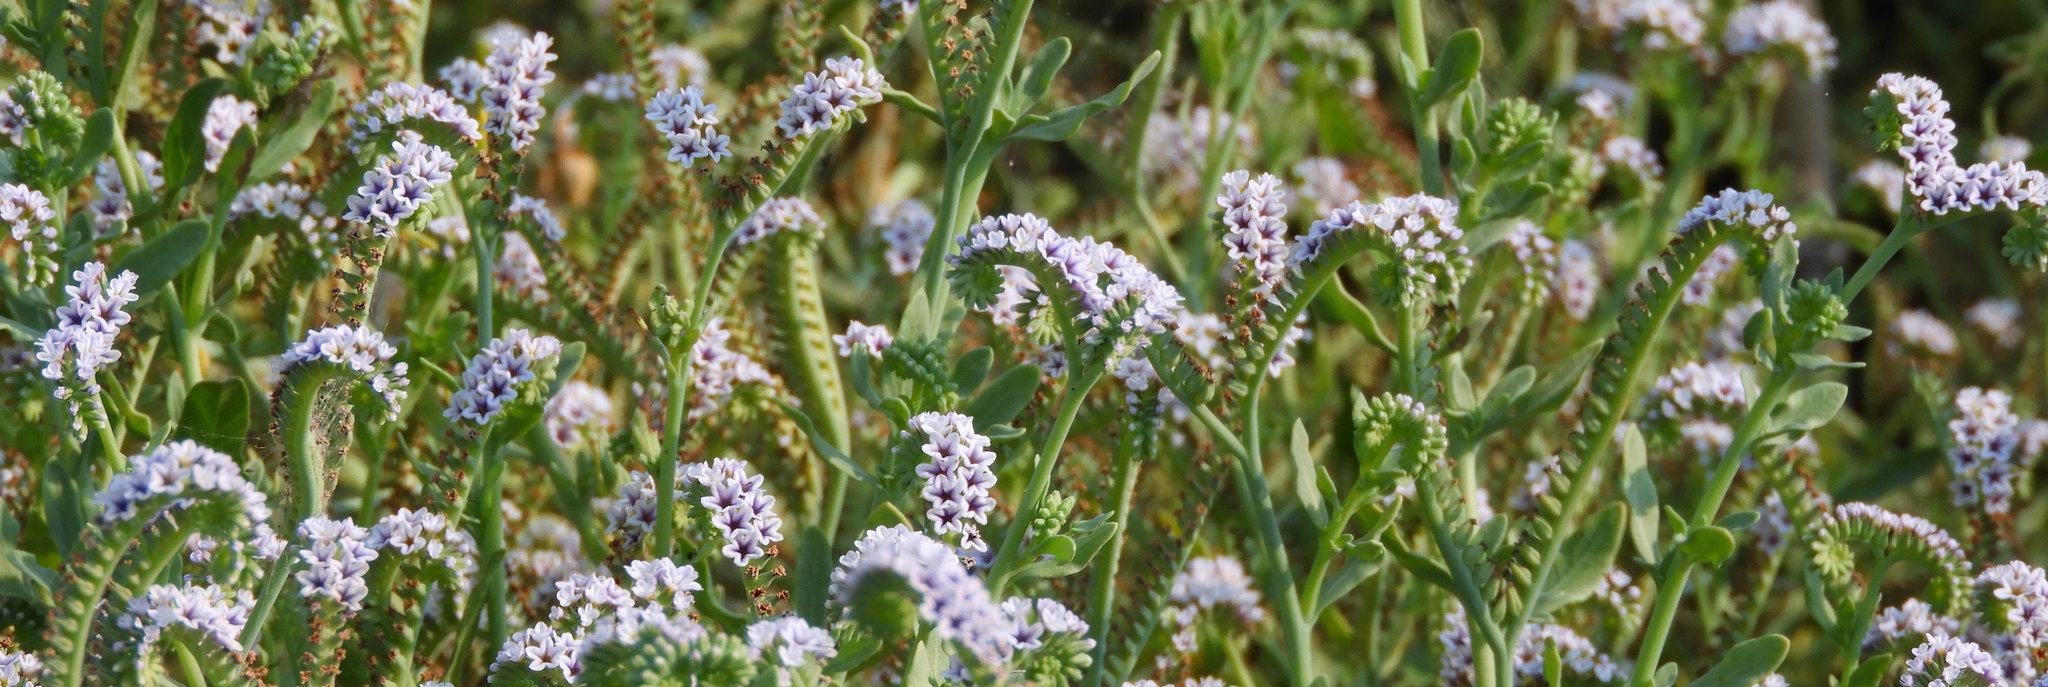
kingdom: Plantae
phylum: Tracheophyta
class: Magnoliopsida
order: Boraginales
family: Heliotropiaceae
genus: Heliotropium
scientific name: Heliotropium curassavicum
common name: Seaside heliotrope
